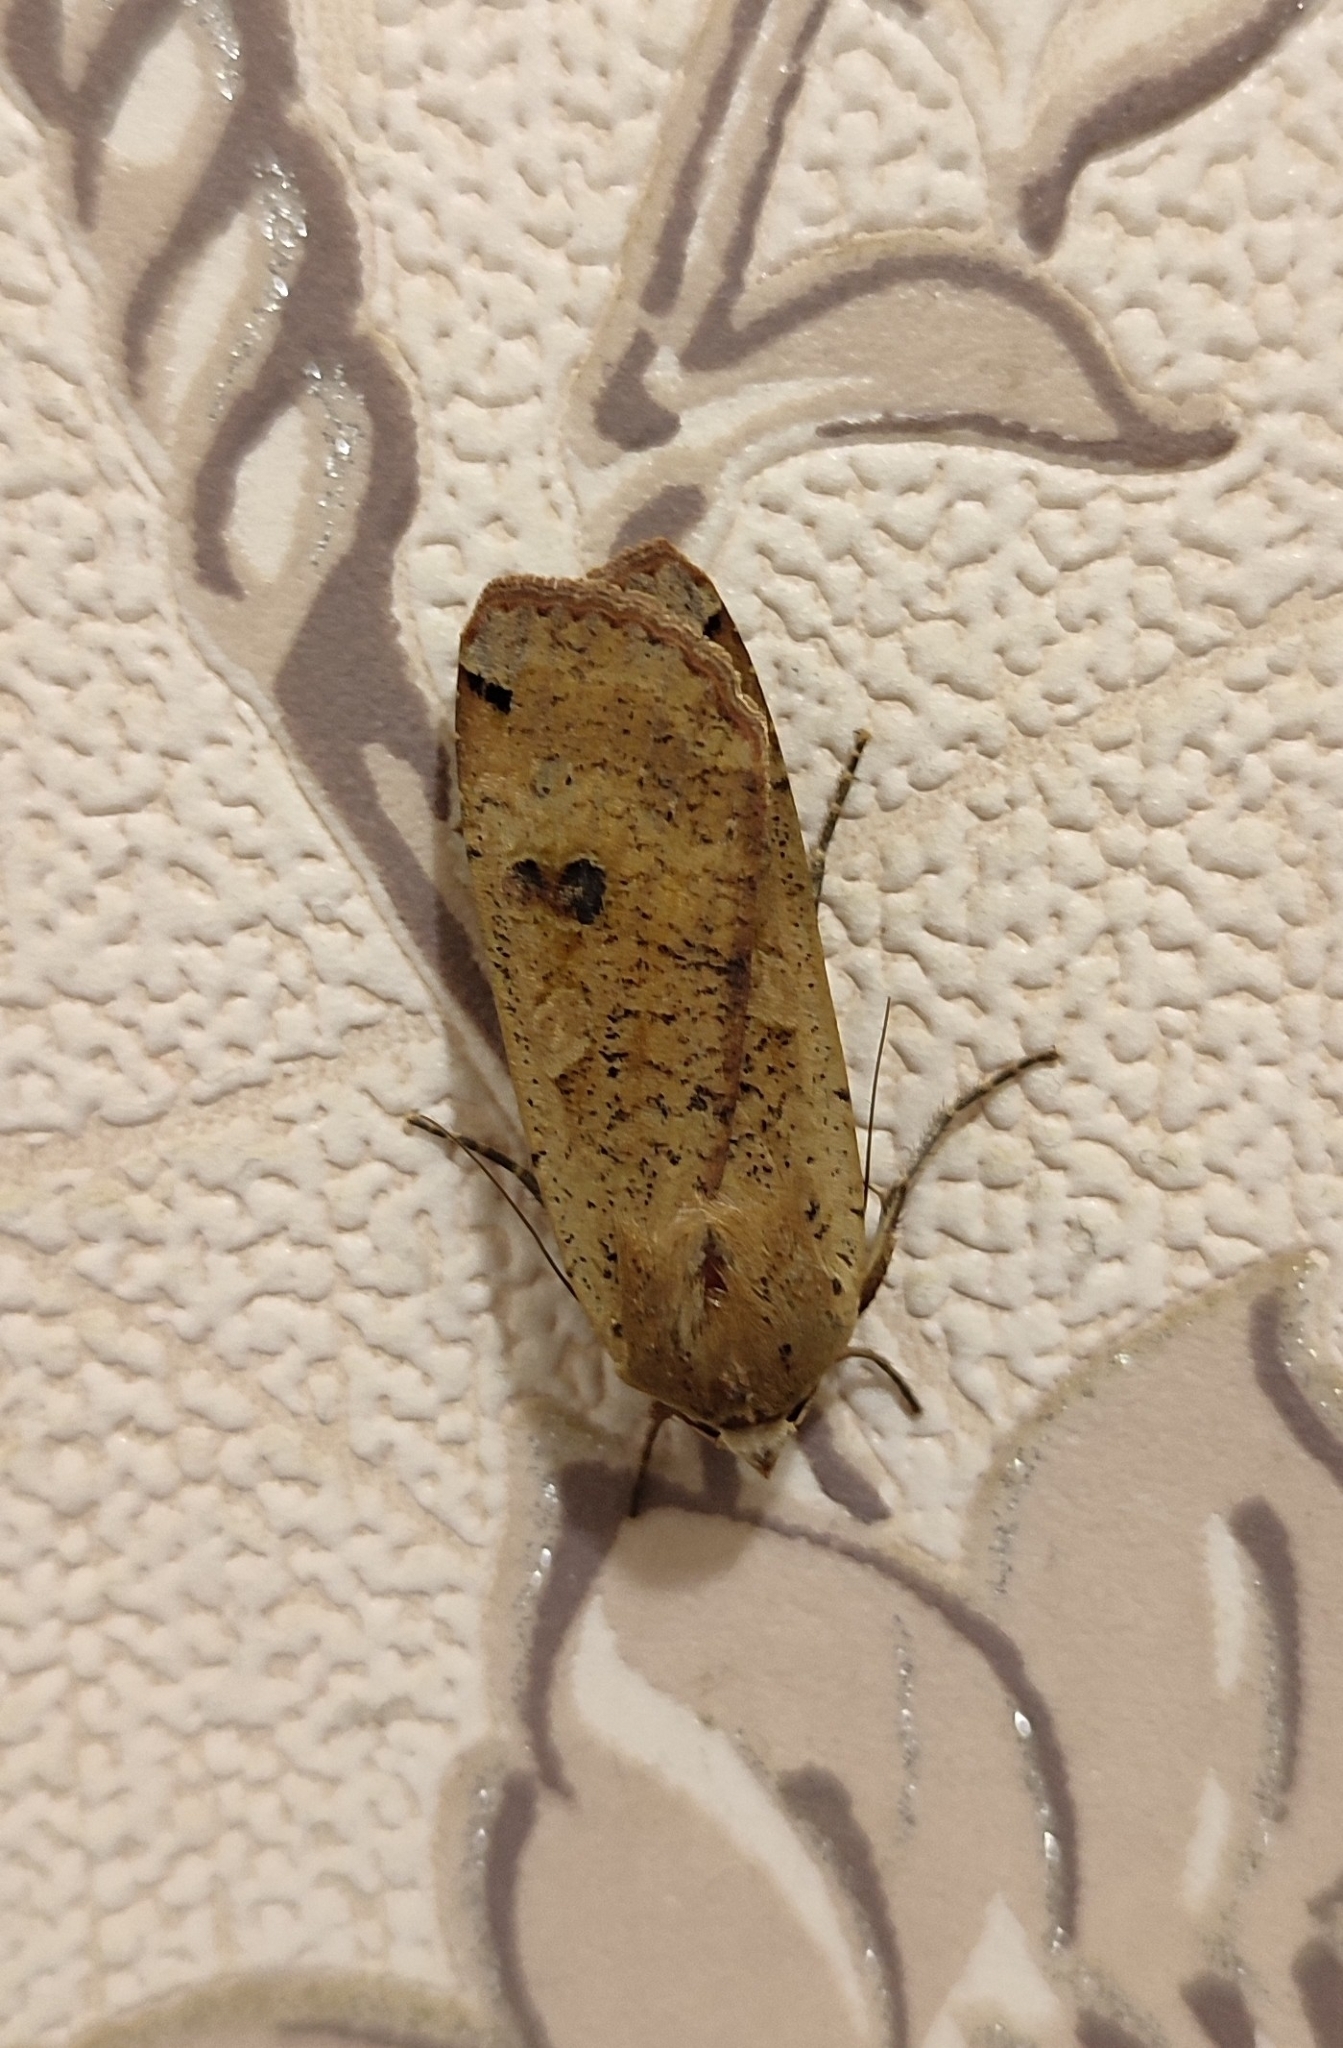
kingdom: Animalia
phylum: Arthropoda
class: Insecta
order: Lepidoptera
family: Noctuidae
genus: Noctua
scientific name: Noctua pronuba
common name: Large yellow underwing
